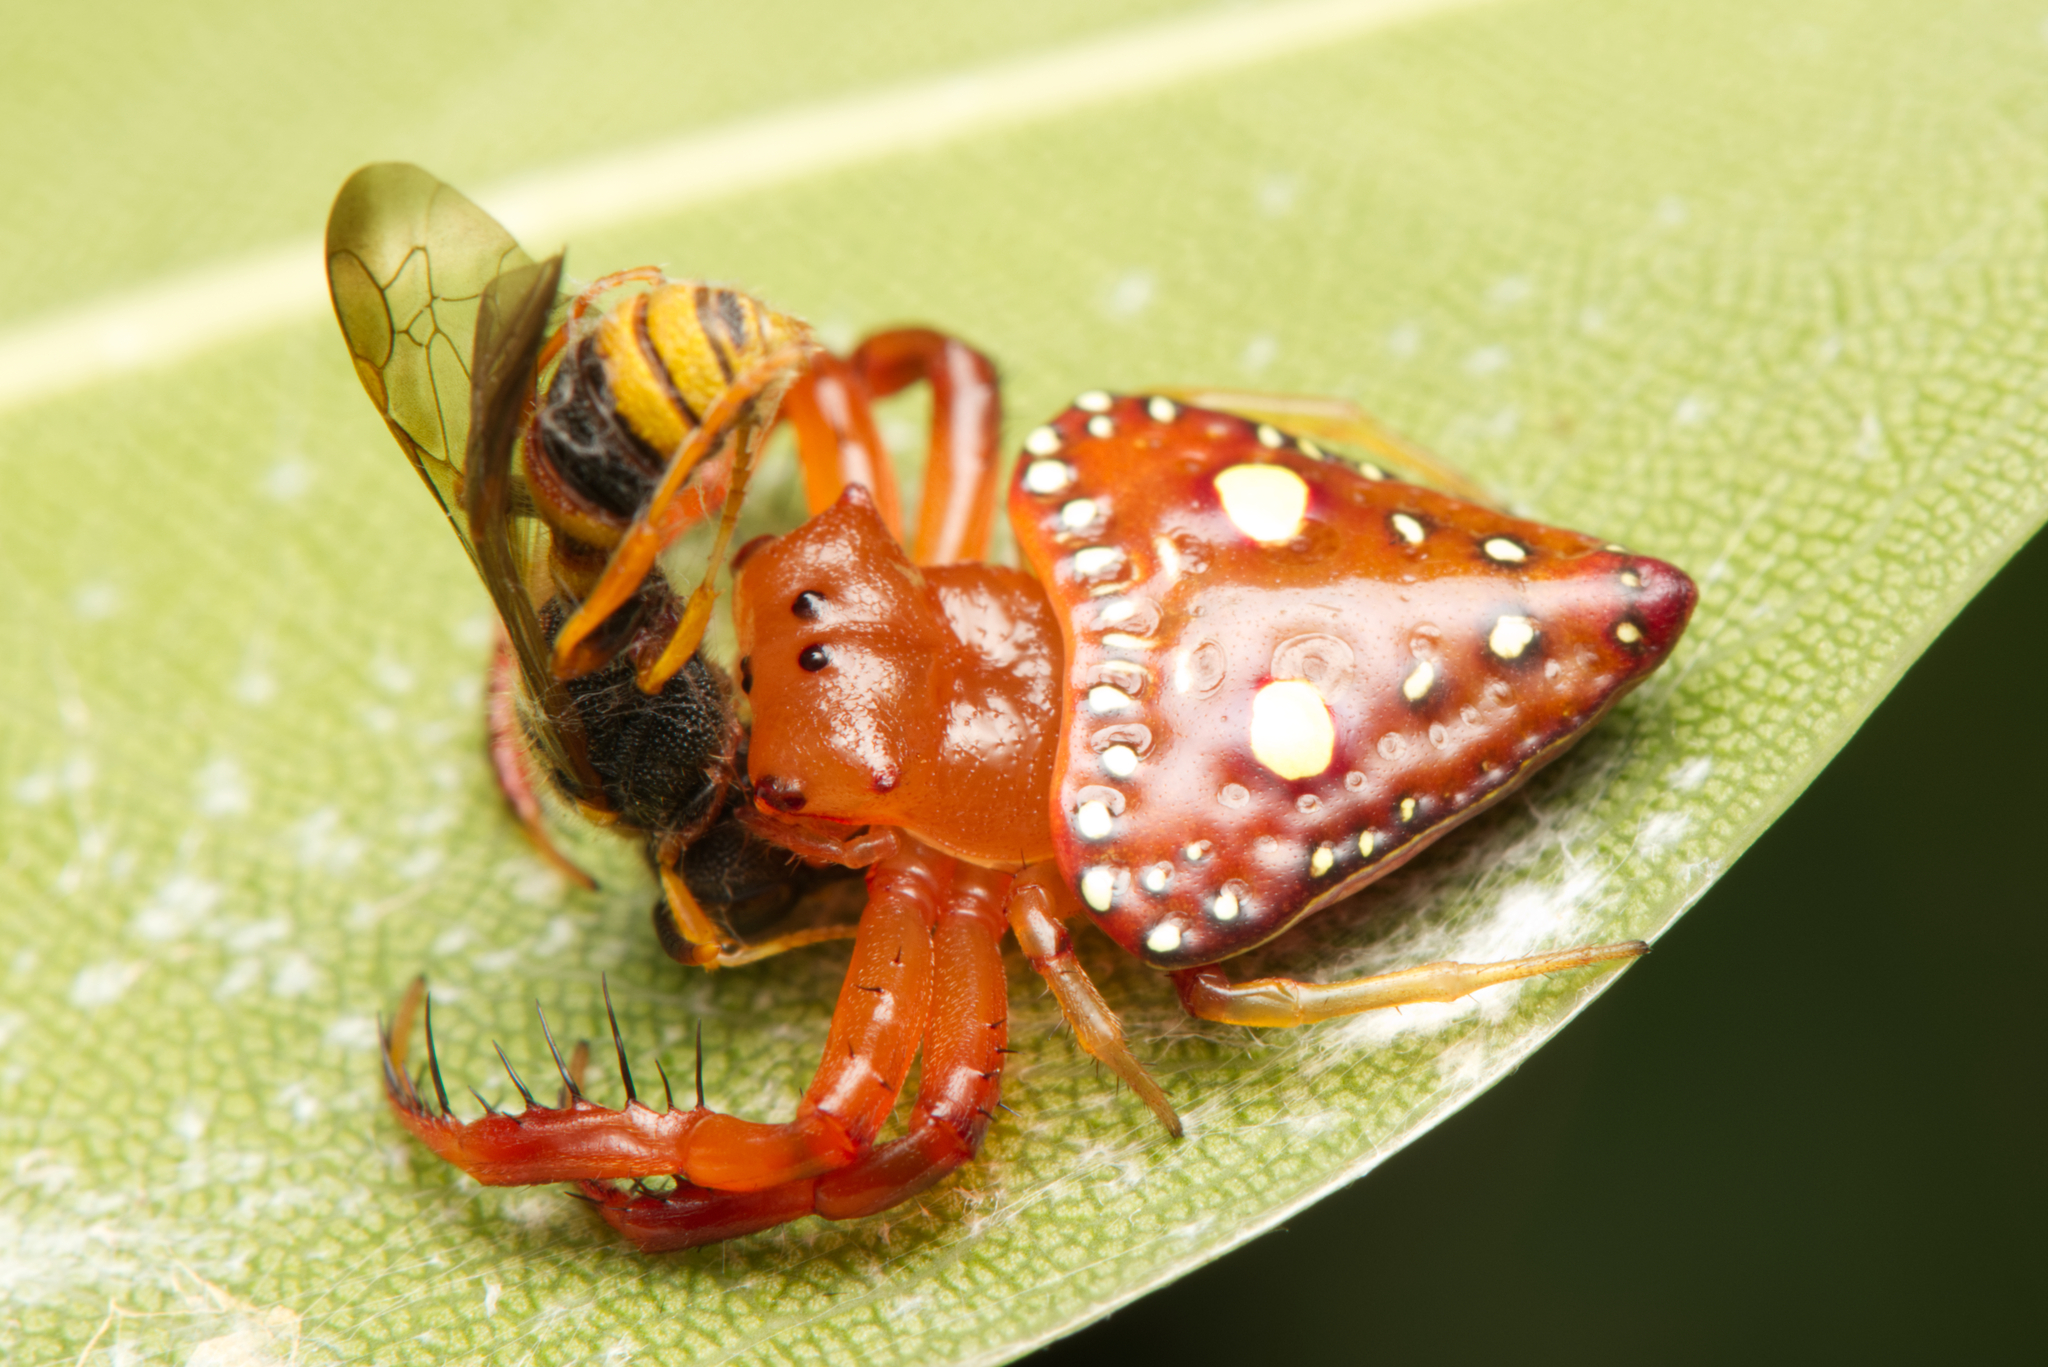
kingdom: Animalia
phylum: Arthropoda
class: Arachnida
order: Araneae
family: Arkyidae
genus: Arkys
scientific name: Arkys lancearius
